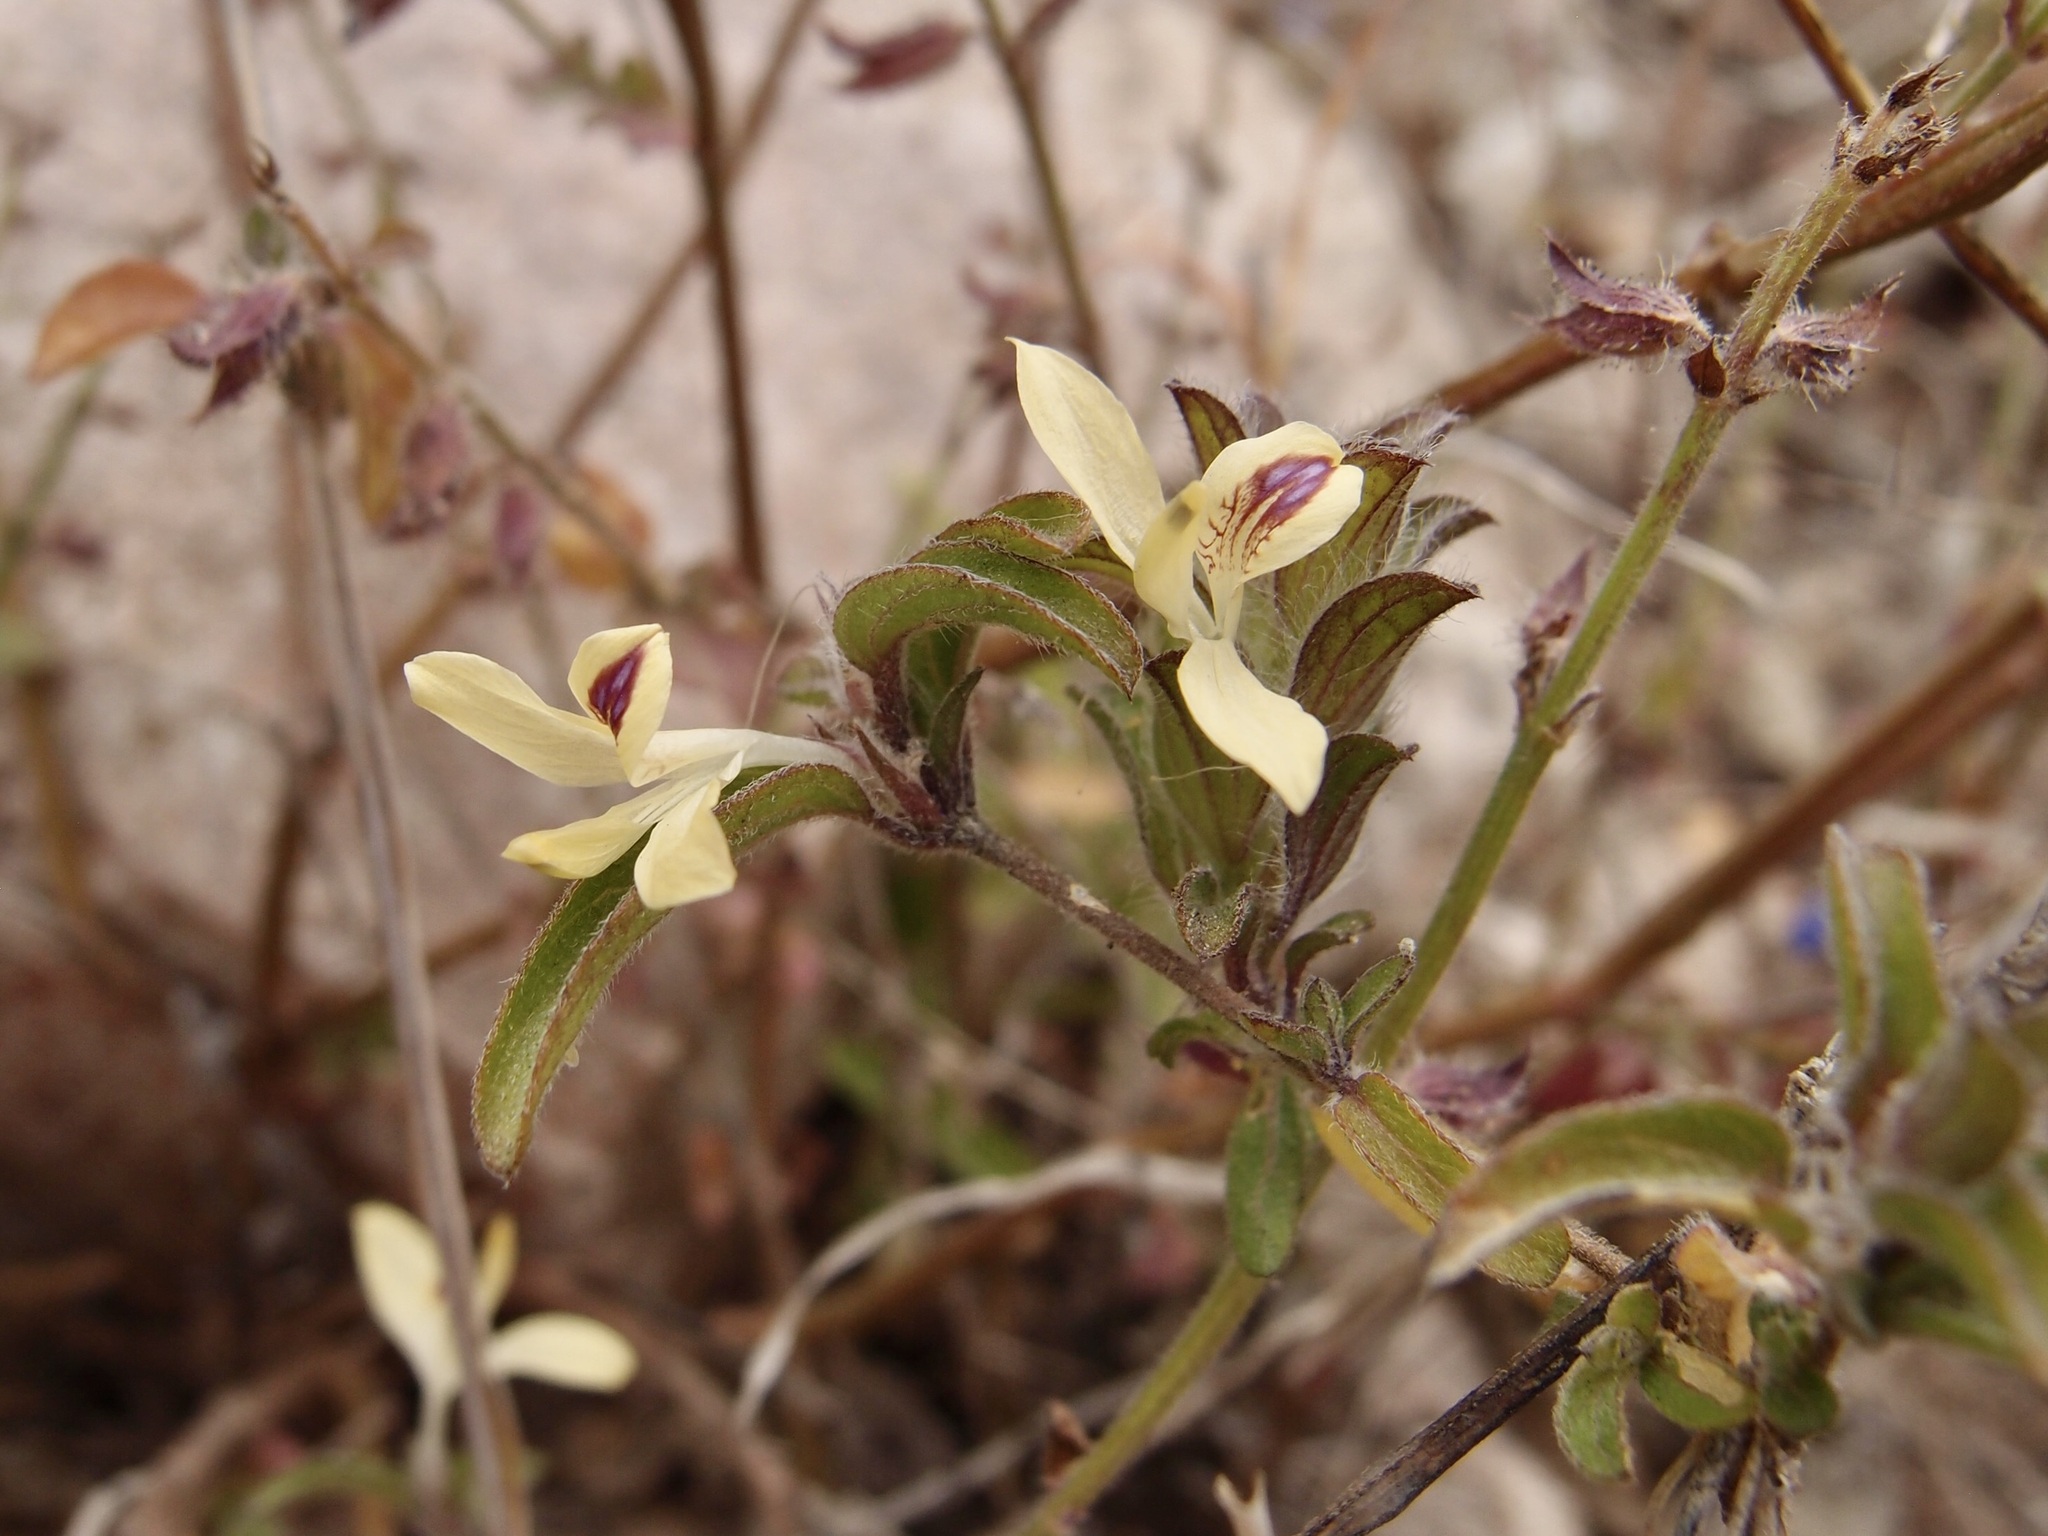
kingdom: Plantae
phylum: Tracheophyta
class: Magnoliopsida
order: Lamiales
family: Acanthaceae
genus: Tetramerium
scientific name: Tetramerium nervosum
